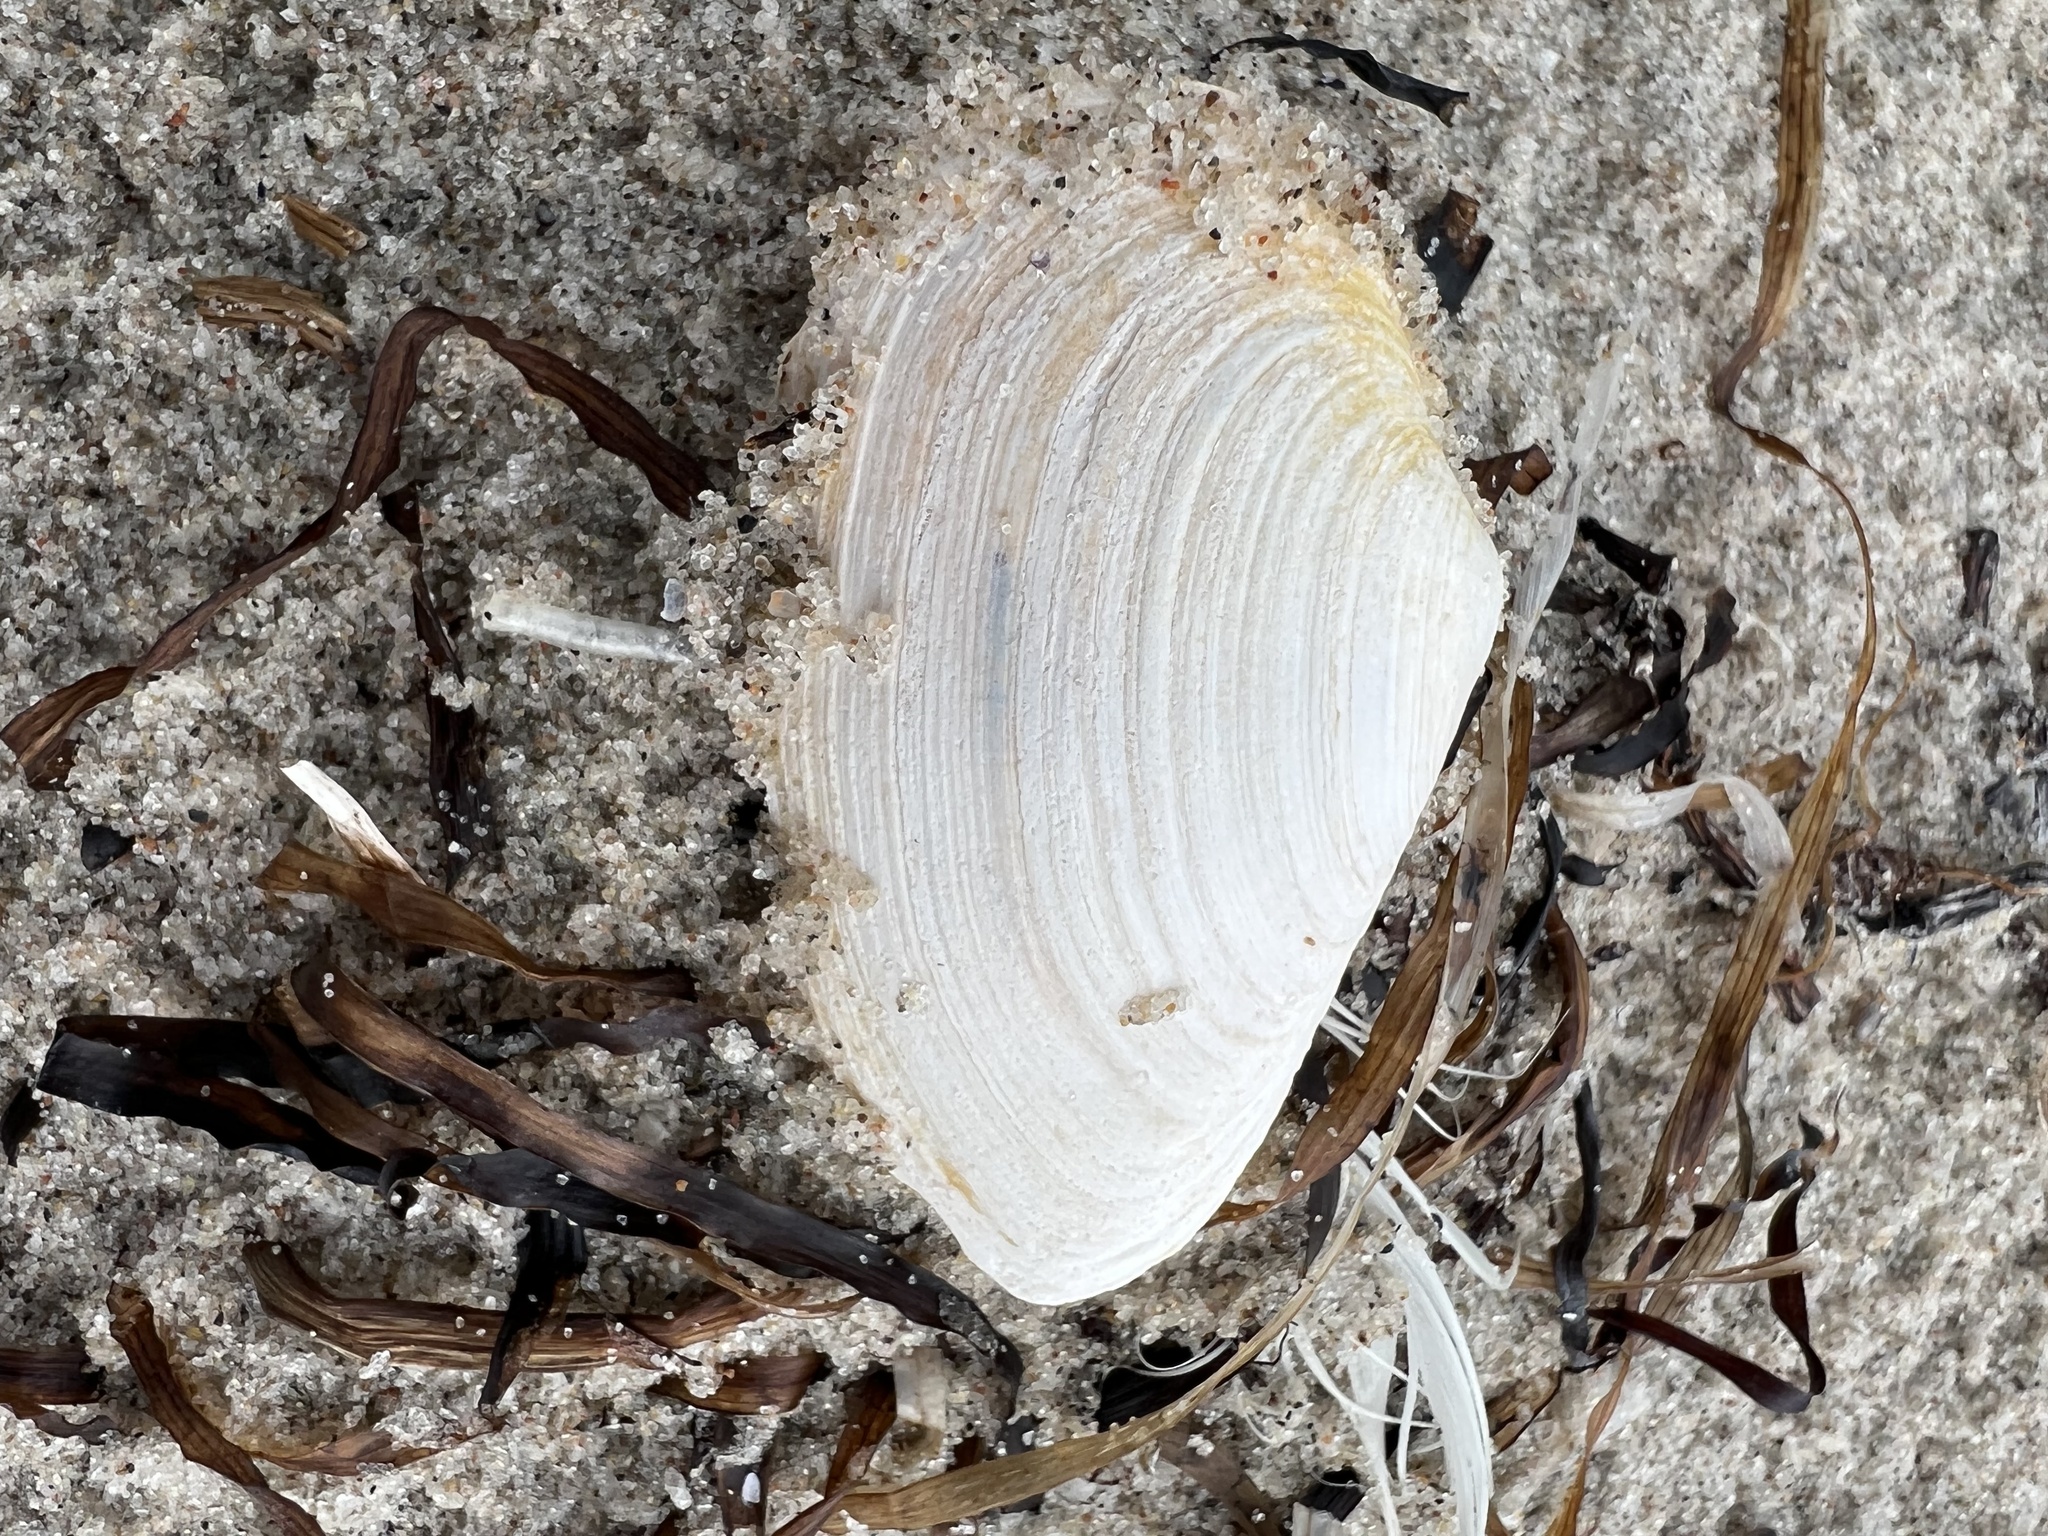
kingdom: Animalia
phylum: Mollusca
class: Bivalvia
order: Myida
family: Myidae
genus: Mya
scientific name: Mya arenaria
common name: Soft-shelled clam
